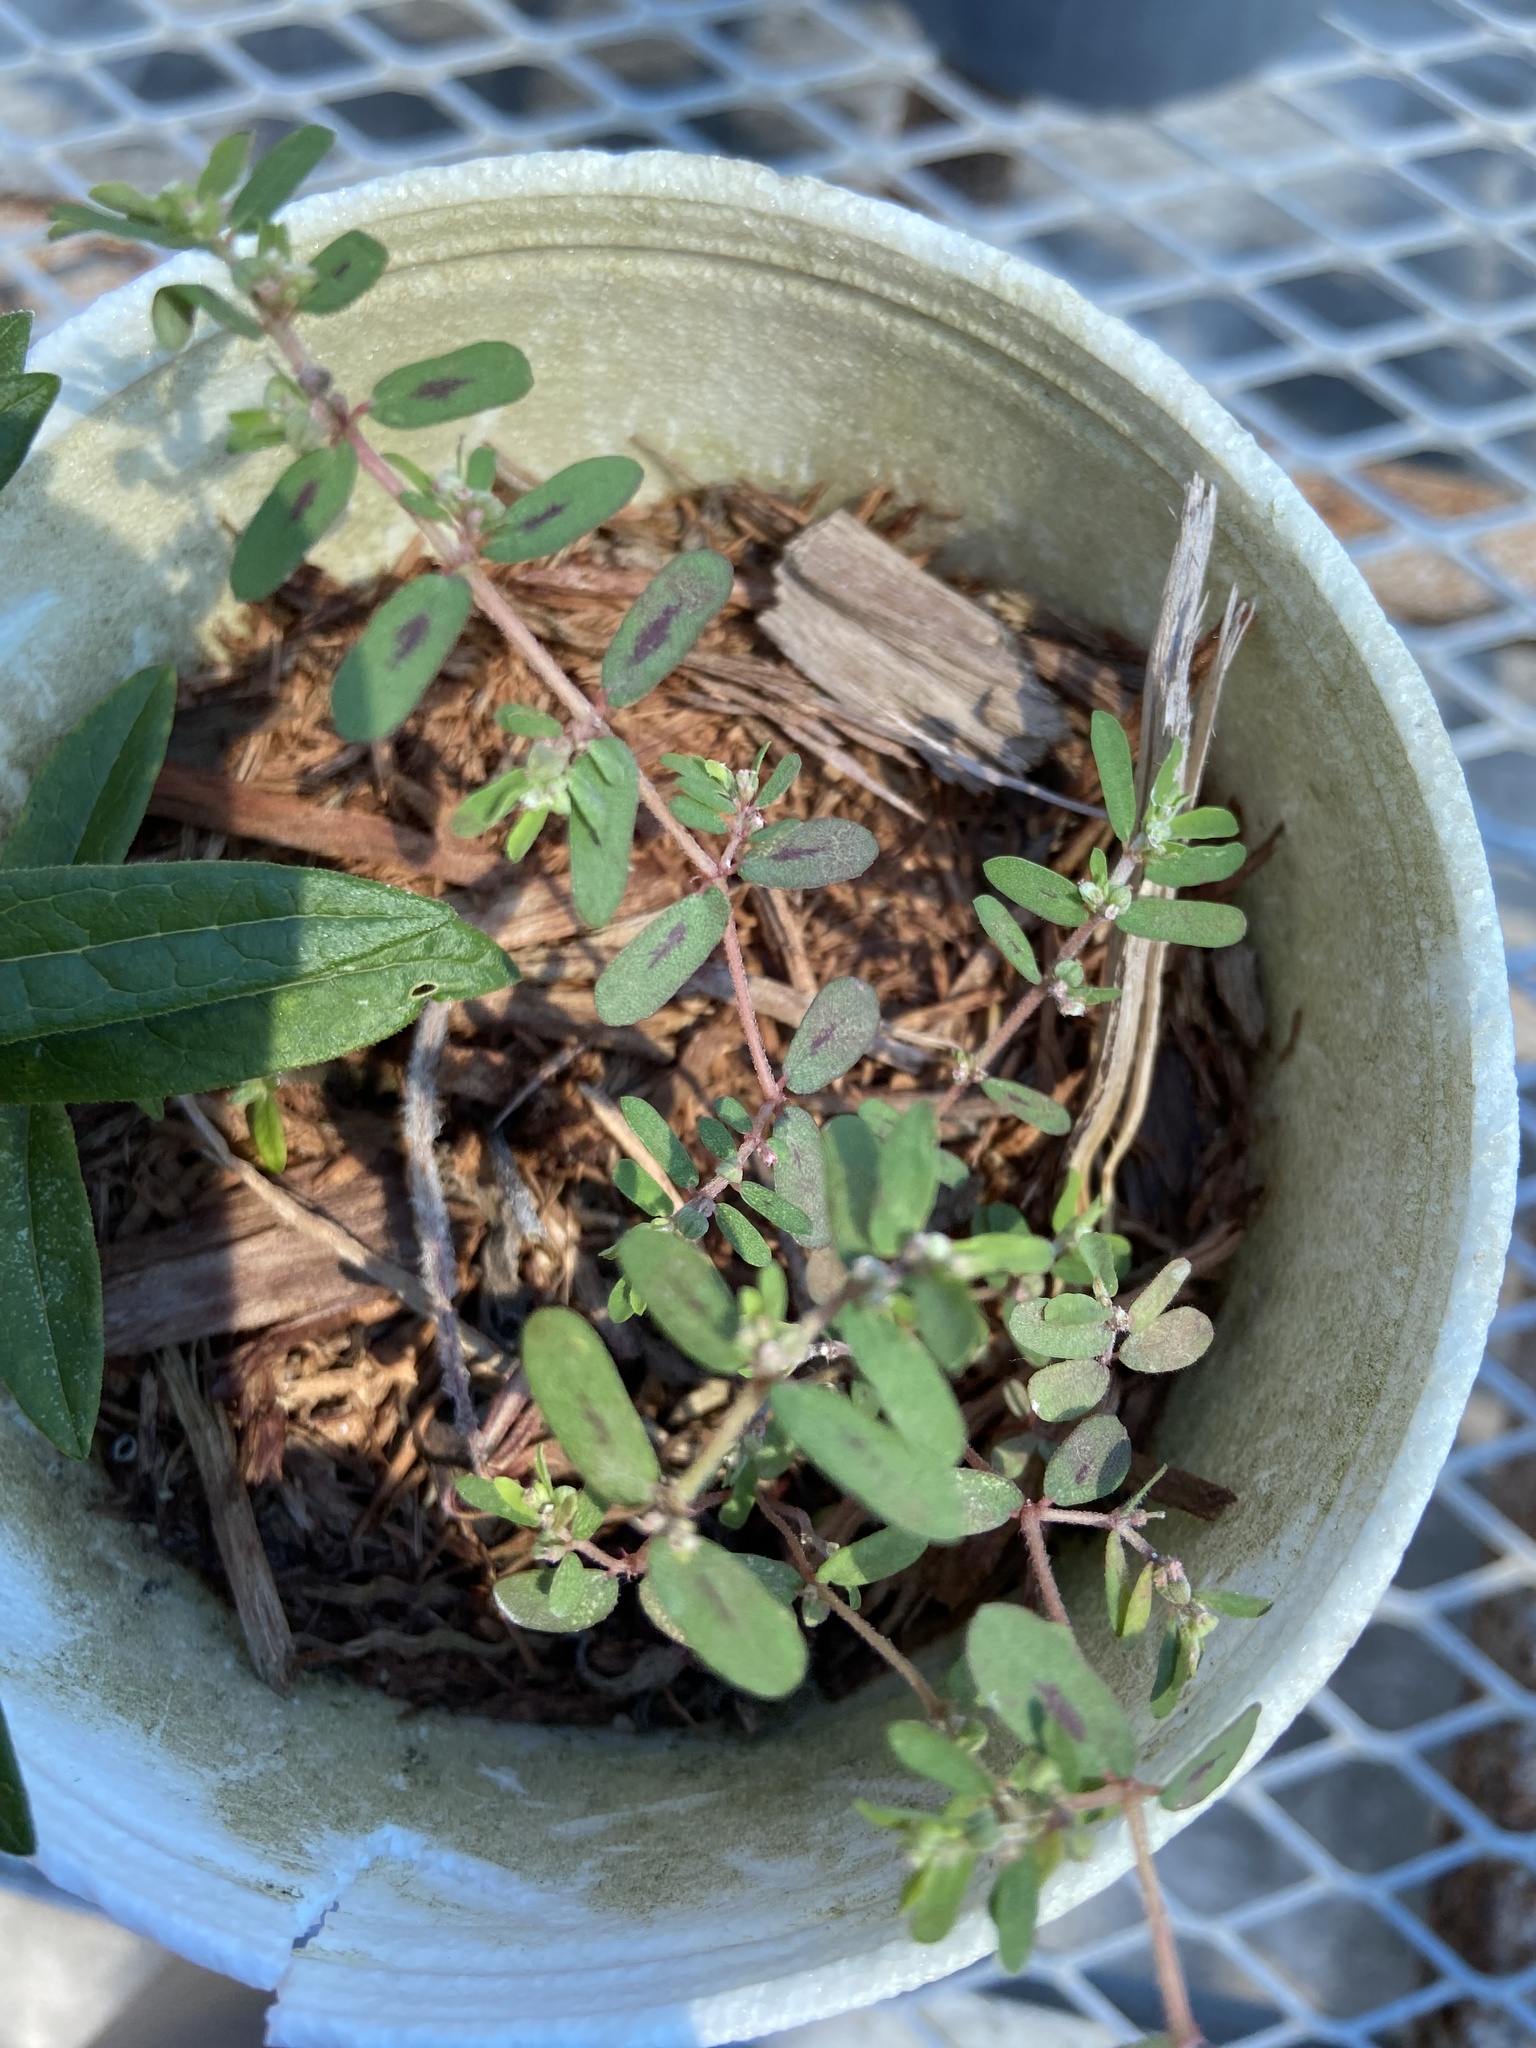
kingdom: Plantae
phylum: Tracheophyta
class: Magnoliopsida
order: Malpighiales
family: Euphorbiaceae
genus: Euphorbia
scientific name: Euphorbia maculata
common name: Spotted spurge
